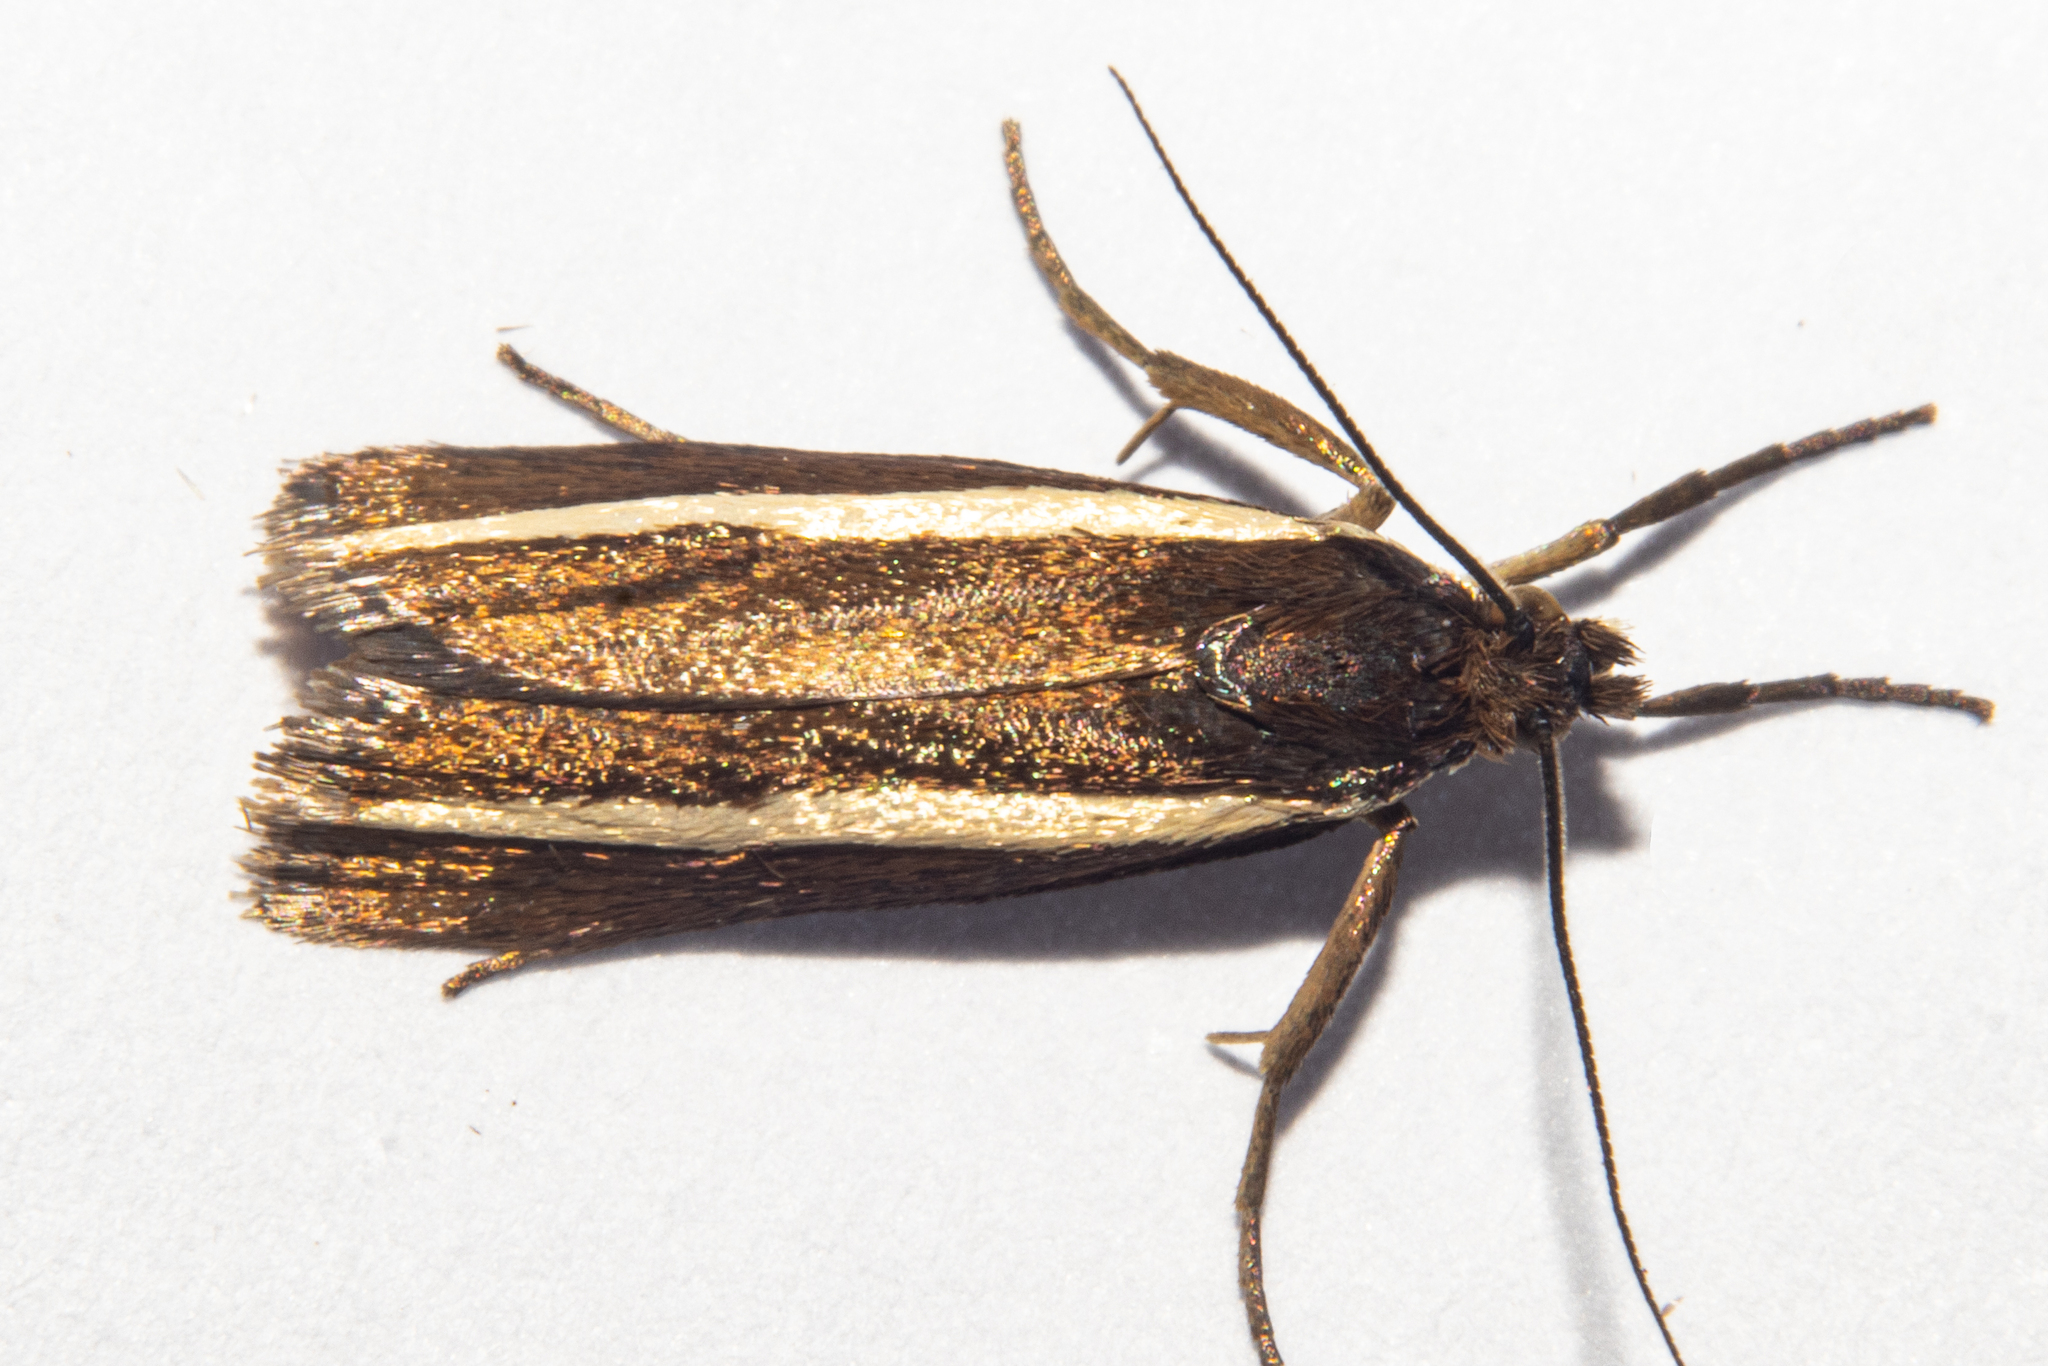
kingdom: Animalia
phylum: Arthropoda
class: Insecta
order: Lepidoptera
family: Crambidae
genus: Orocrambus
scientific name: Orocrambus aethonellus
